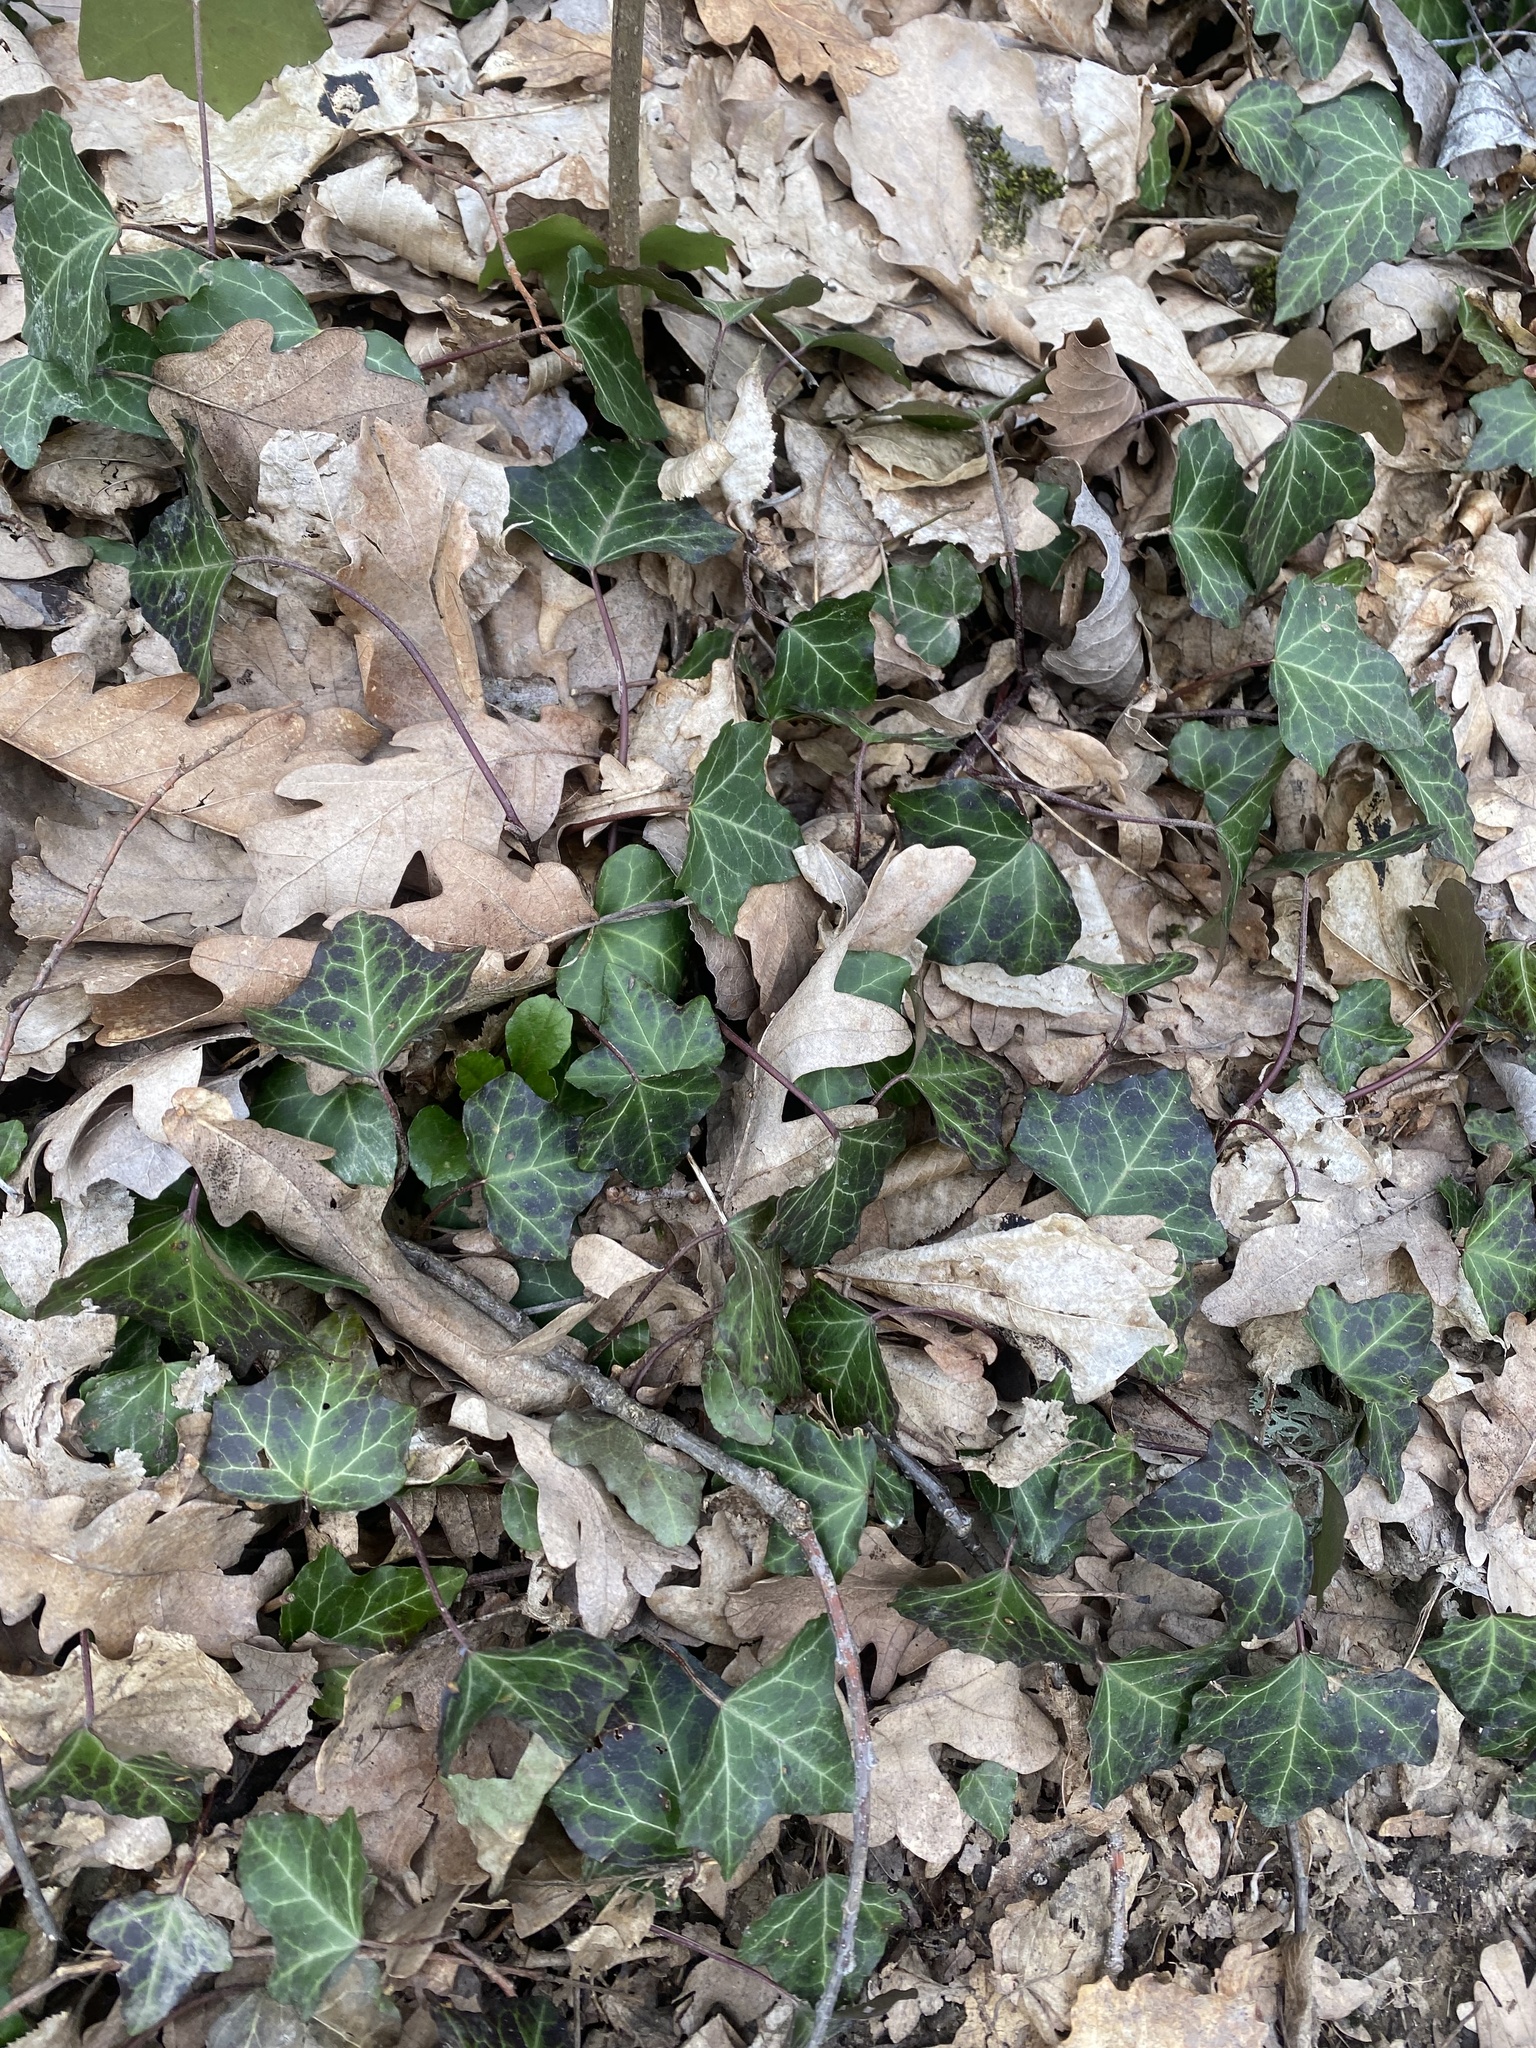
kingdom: Plantae
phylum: Tracheophyta
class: Magnoliopsida
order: Apiales
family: Araliaceae
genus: Hedera
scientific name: Hedera helix
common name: Ivy
